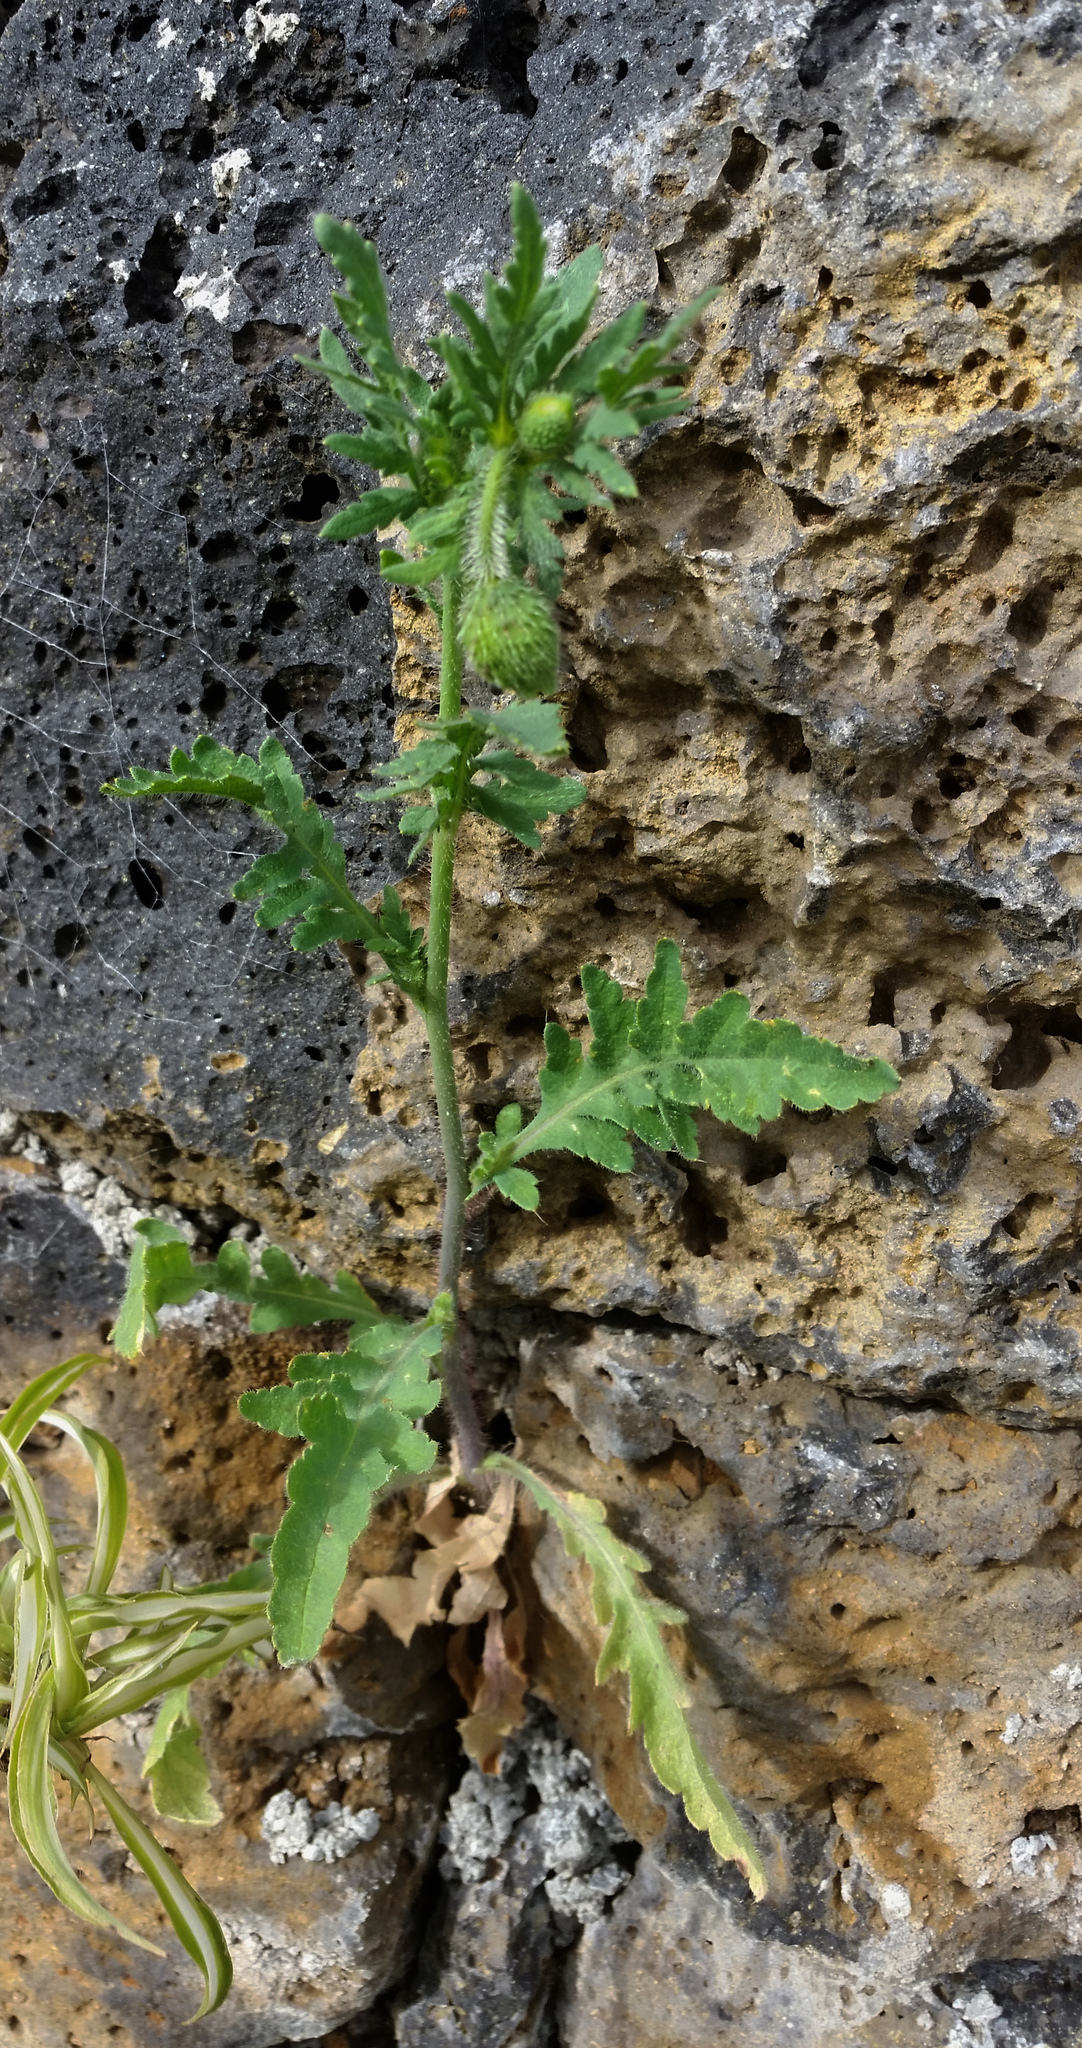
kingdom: Plantae
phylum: Tracheophyta
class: Magnoliopsida
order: Ranunculales
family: Papaveraceae
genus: Papaver
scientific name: Papaver rhoeas
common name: Corn poppy
